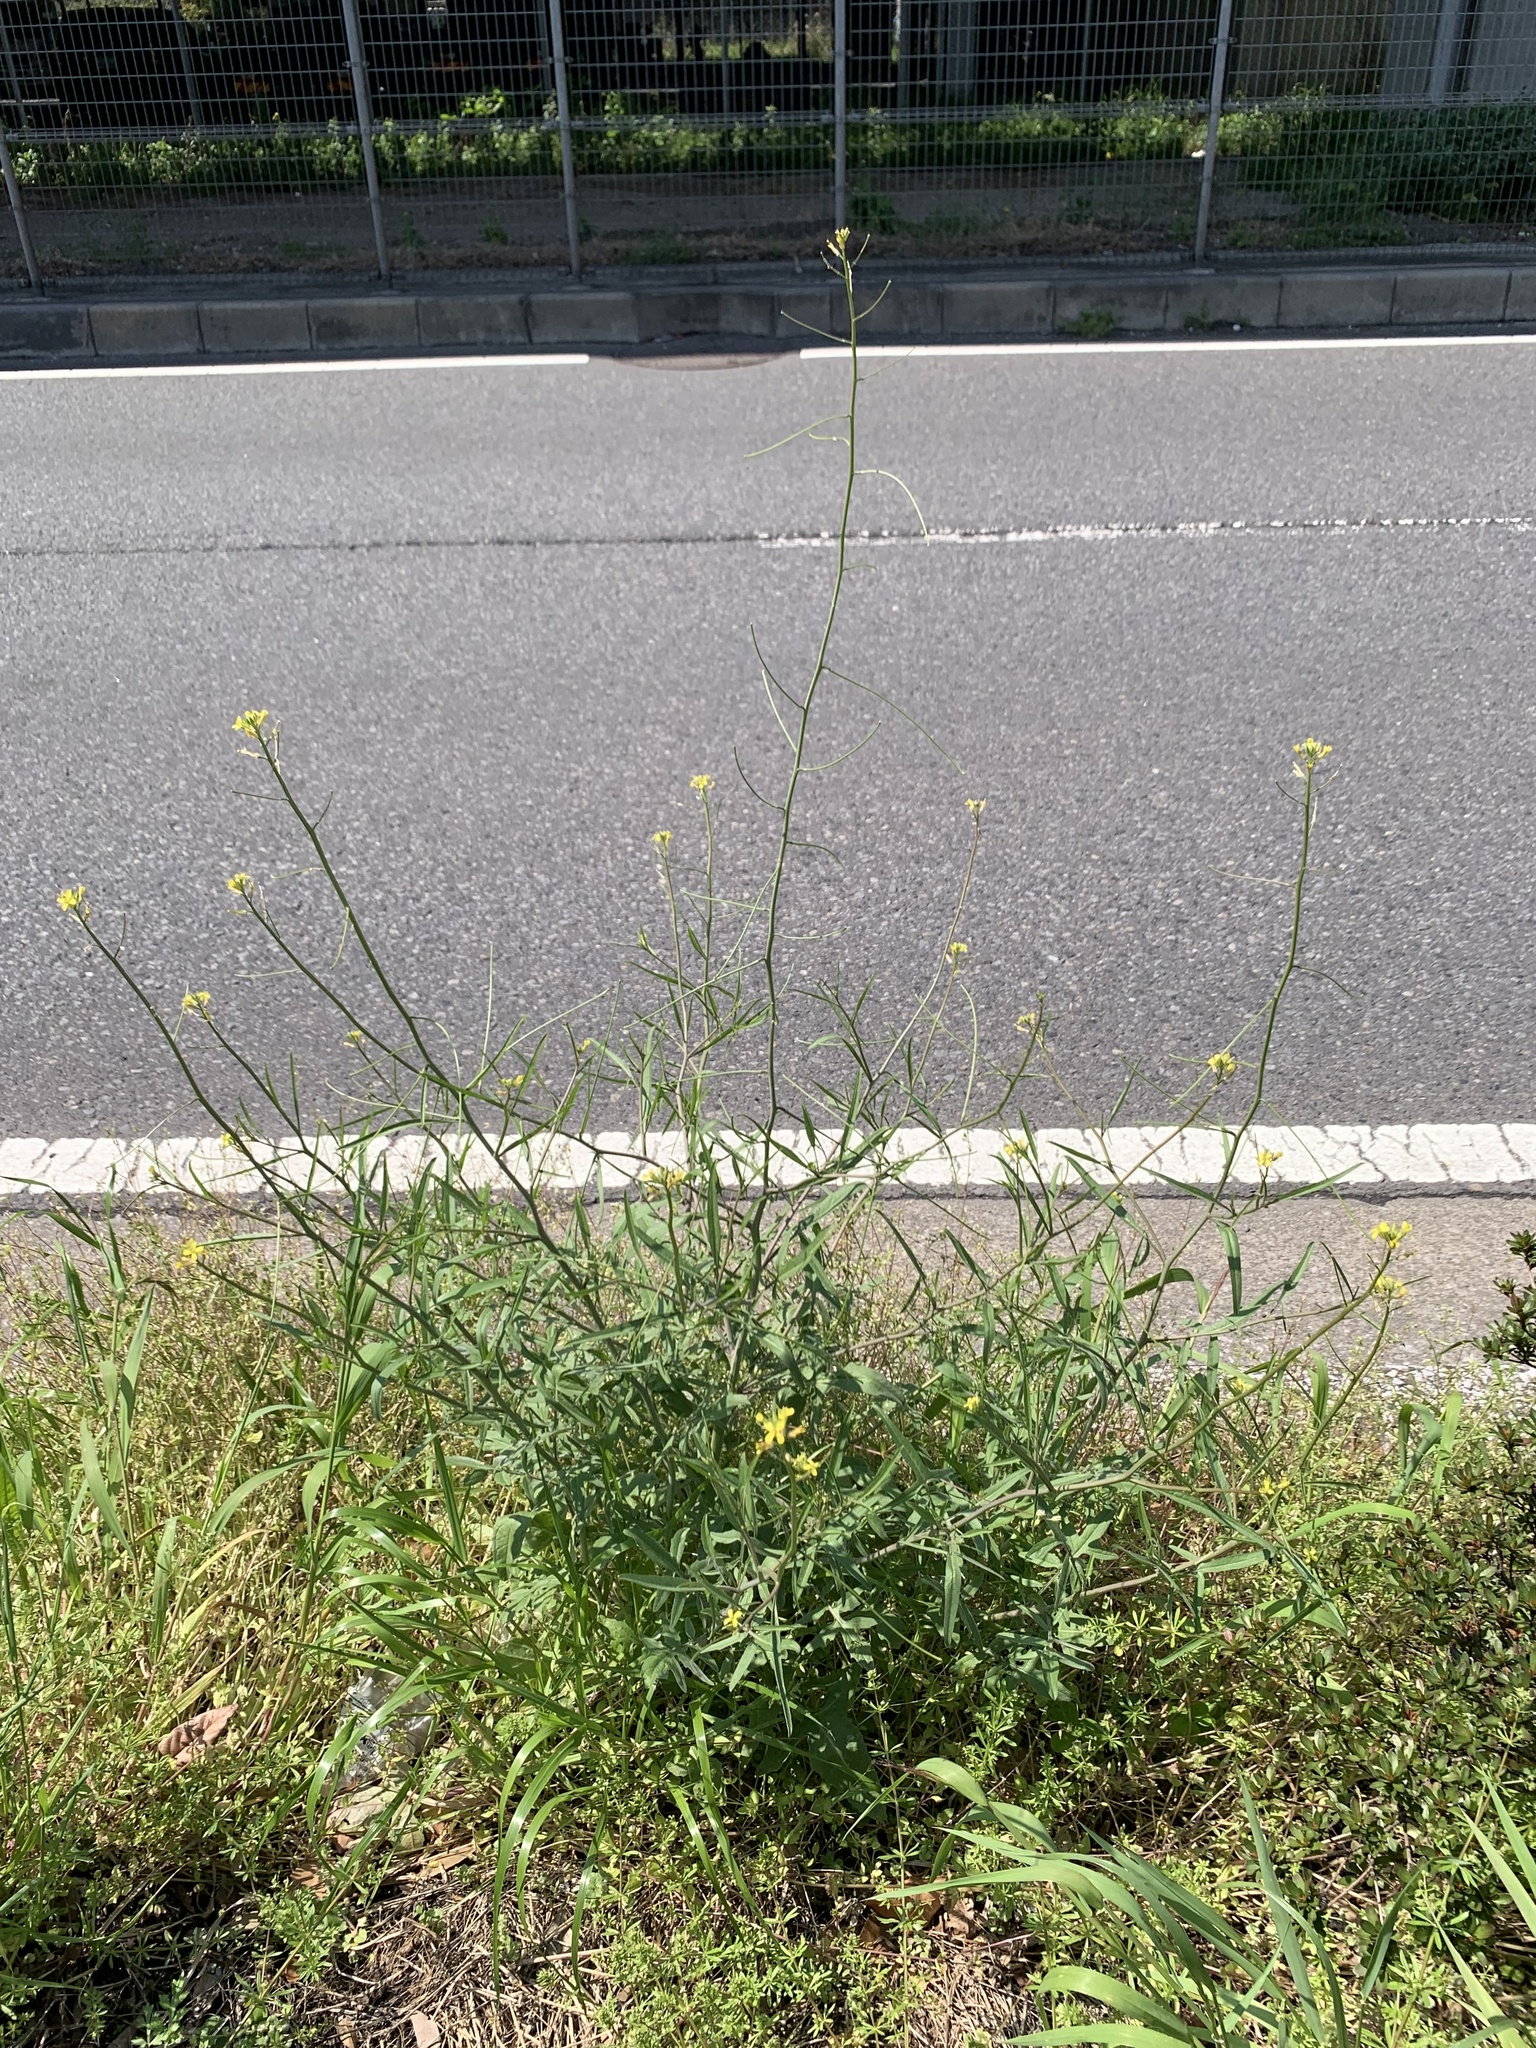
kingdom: Plantae
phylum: Tracheophyta
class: Magnoliopsida
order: Brassicales
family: Brassicaceae
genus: Sisymbrium
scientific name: Sisymbrium orientale
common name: Eastern rocket
